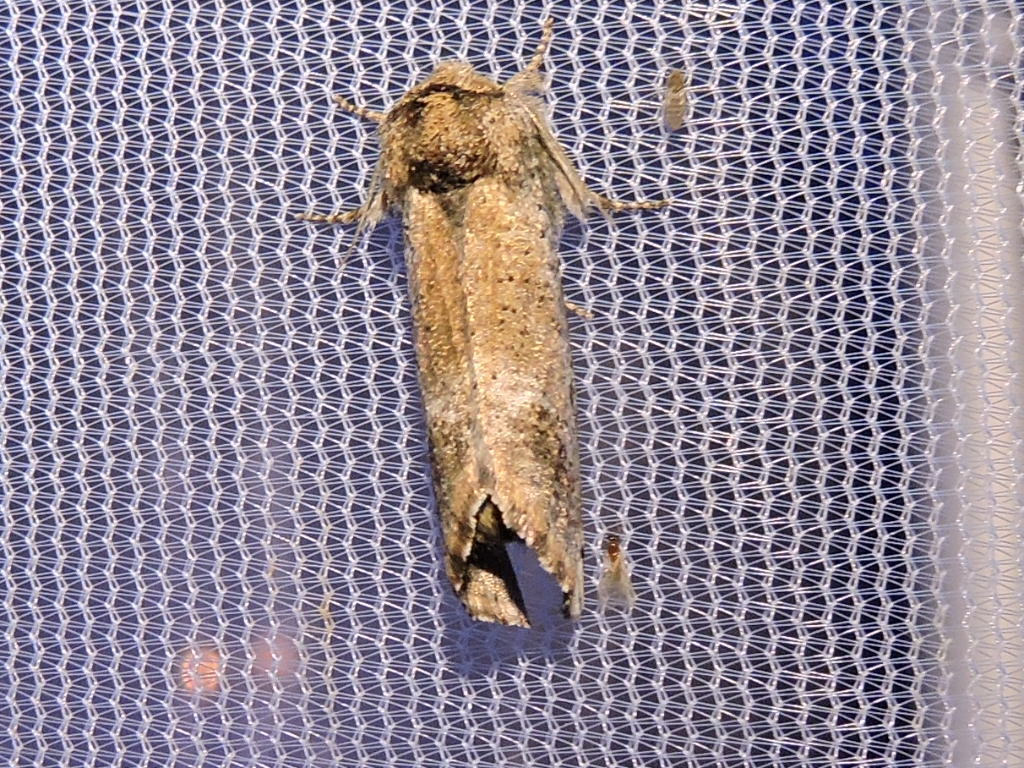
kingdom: Animalia
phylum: Arthropoda
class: Insecta
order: Lepidoptera
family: Erebidae
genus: Aon
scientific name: Aon noctuiformis
